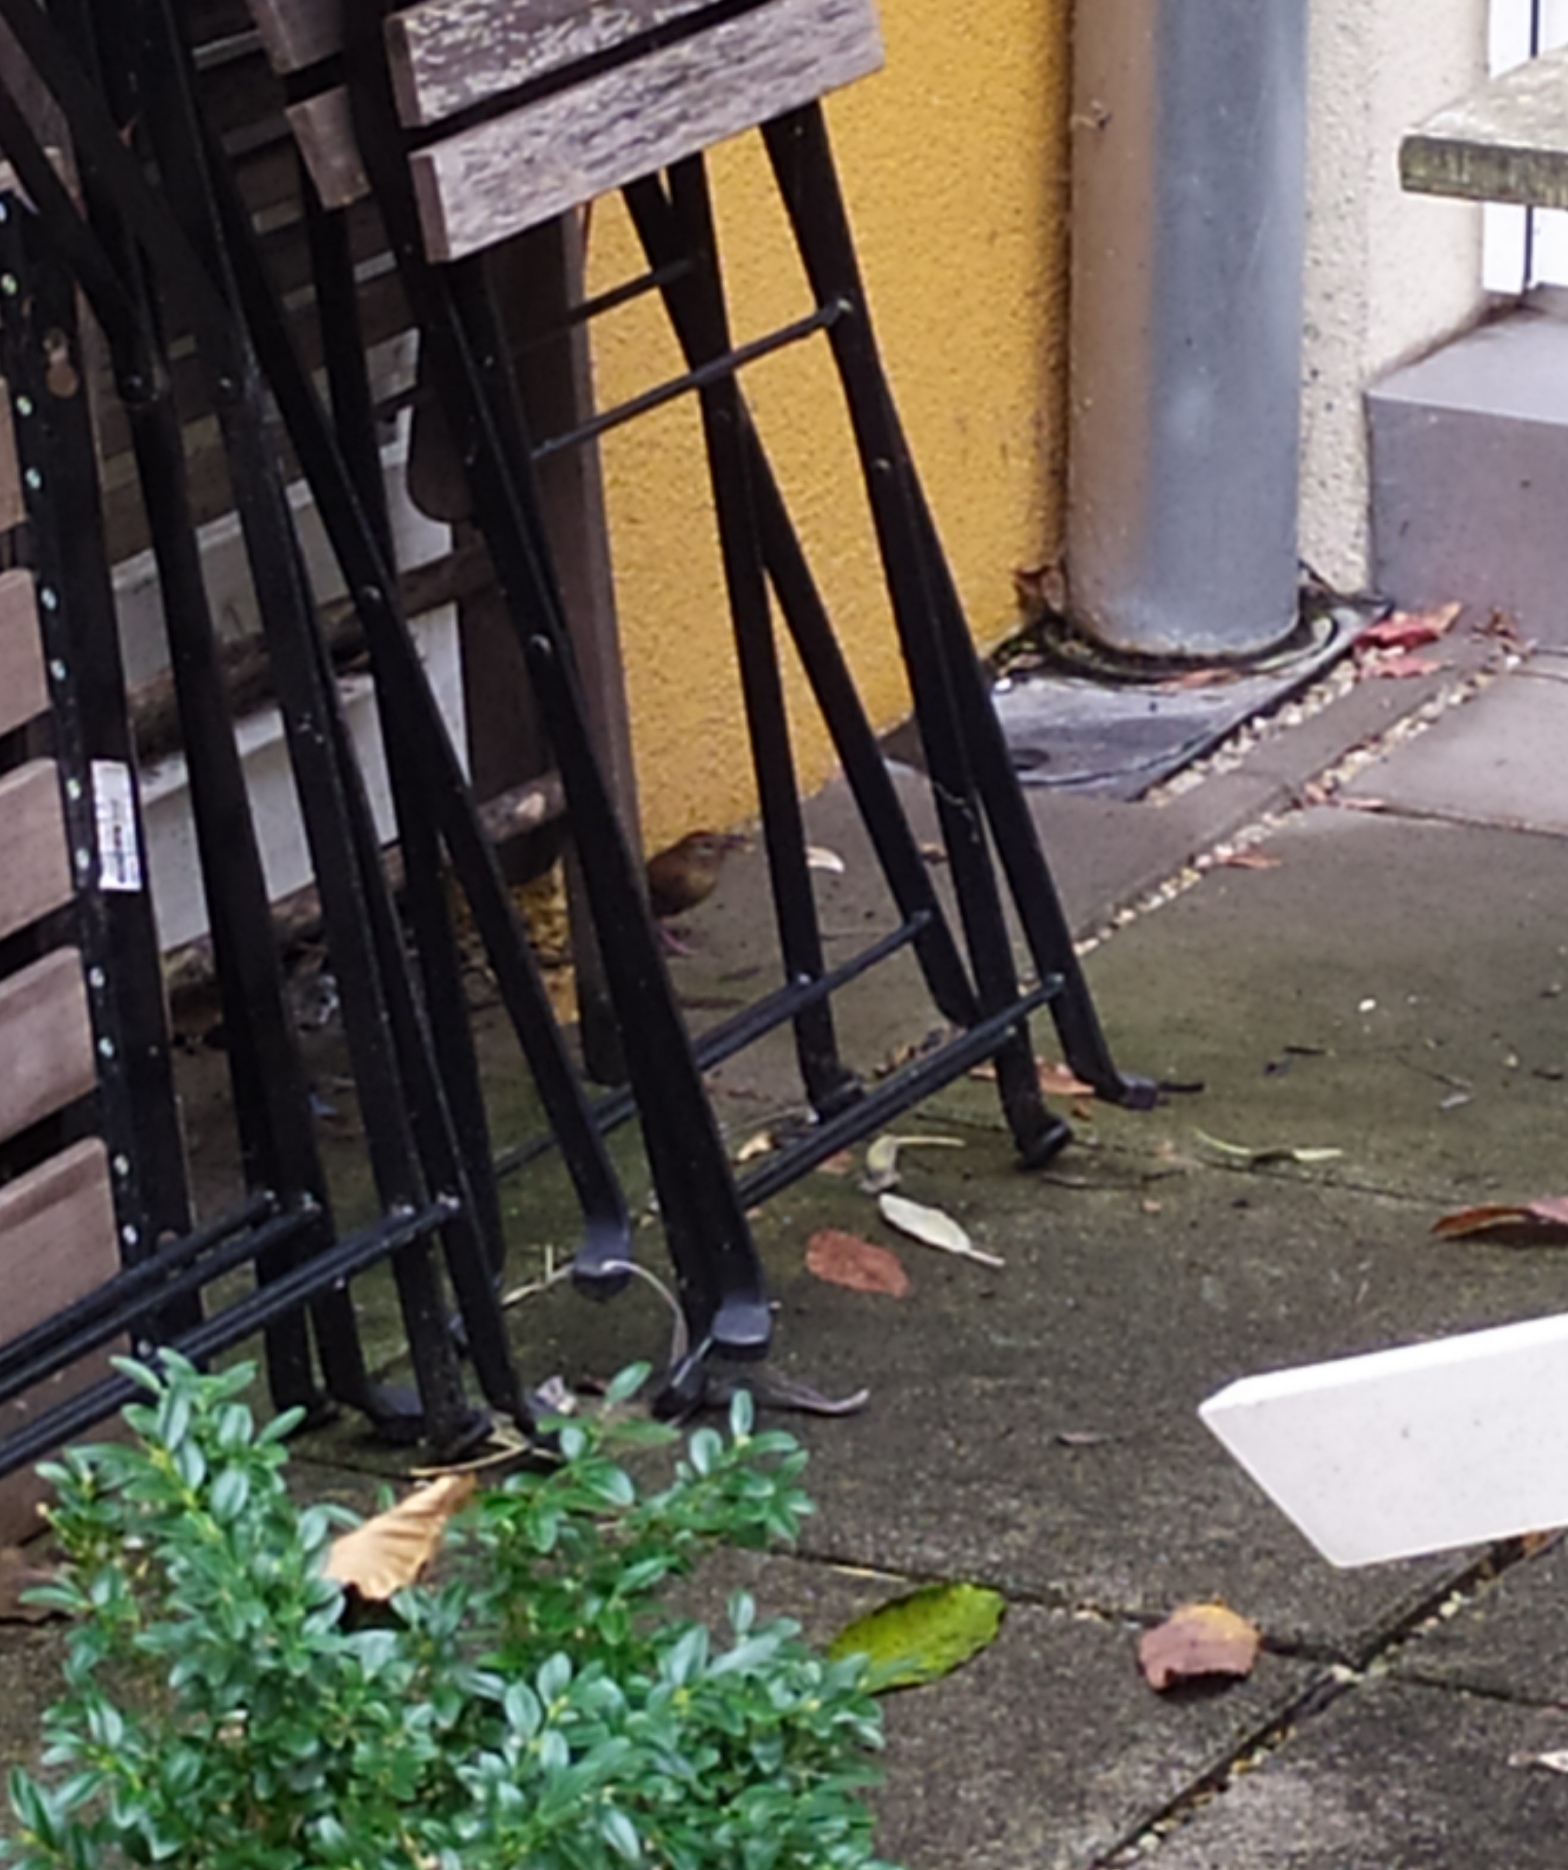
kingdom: Animalia
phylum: Chordata
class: Aves
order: Passeriformes
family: Troglodytidae
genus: Troglodytes
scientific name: Troglodytes troglodytes
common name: Eurasian wren
